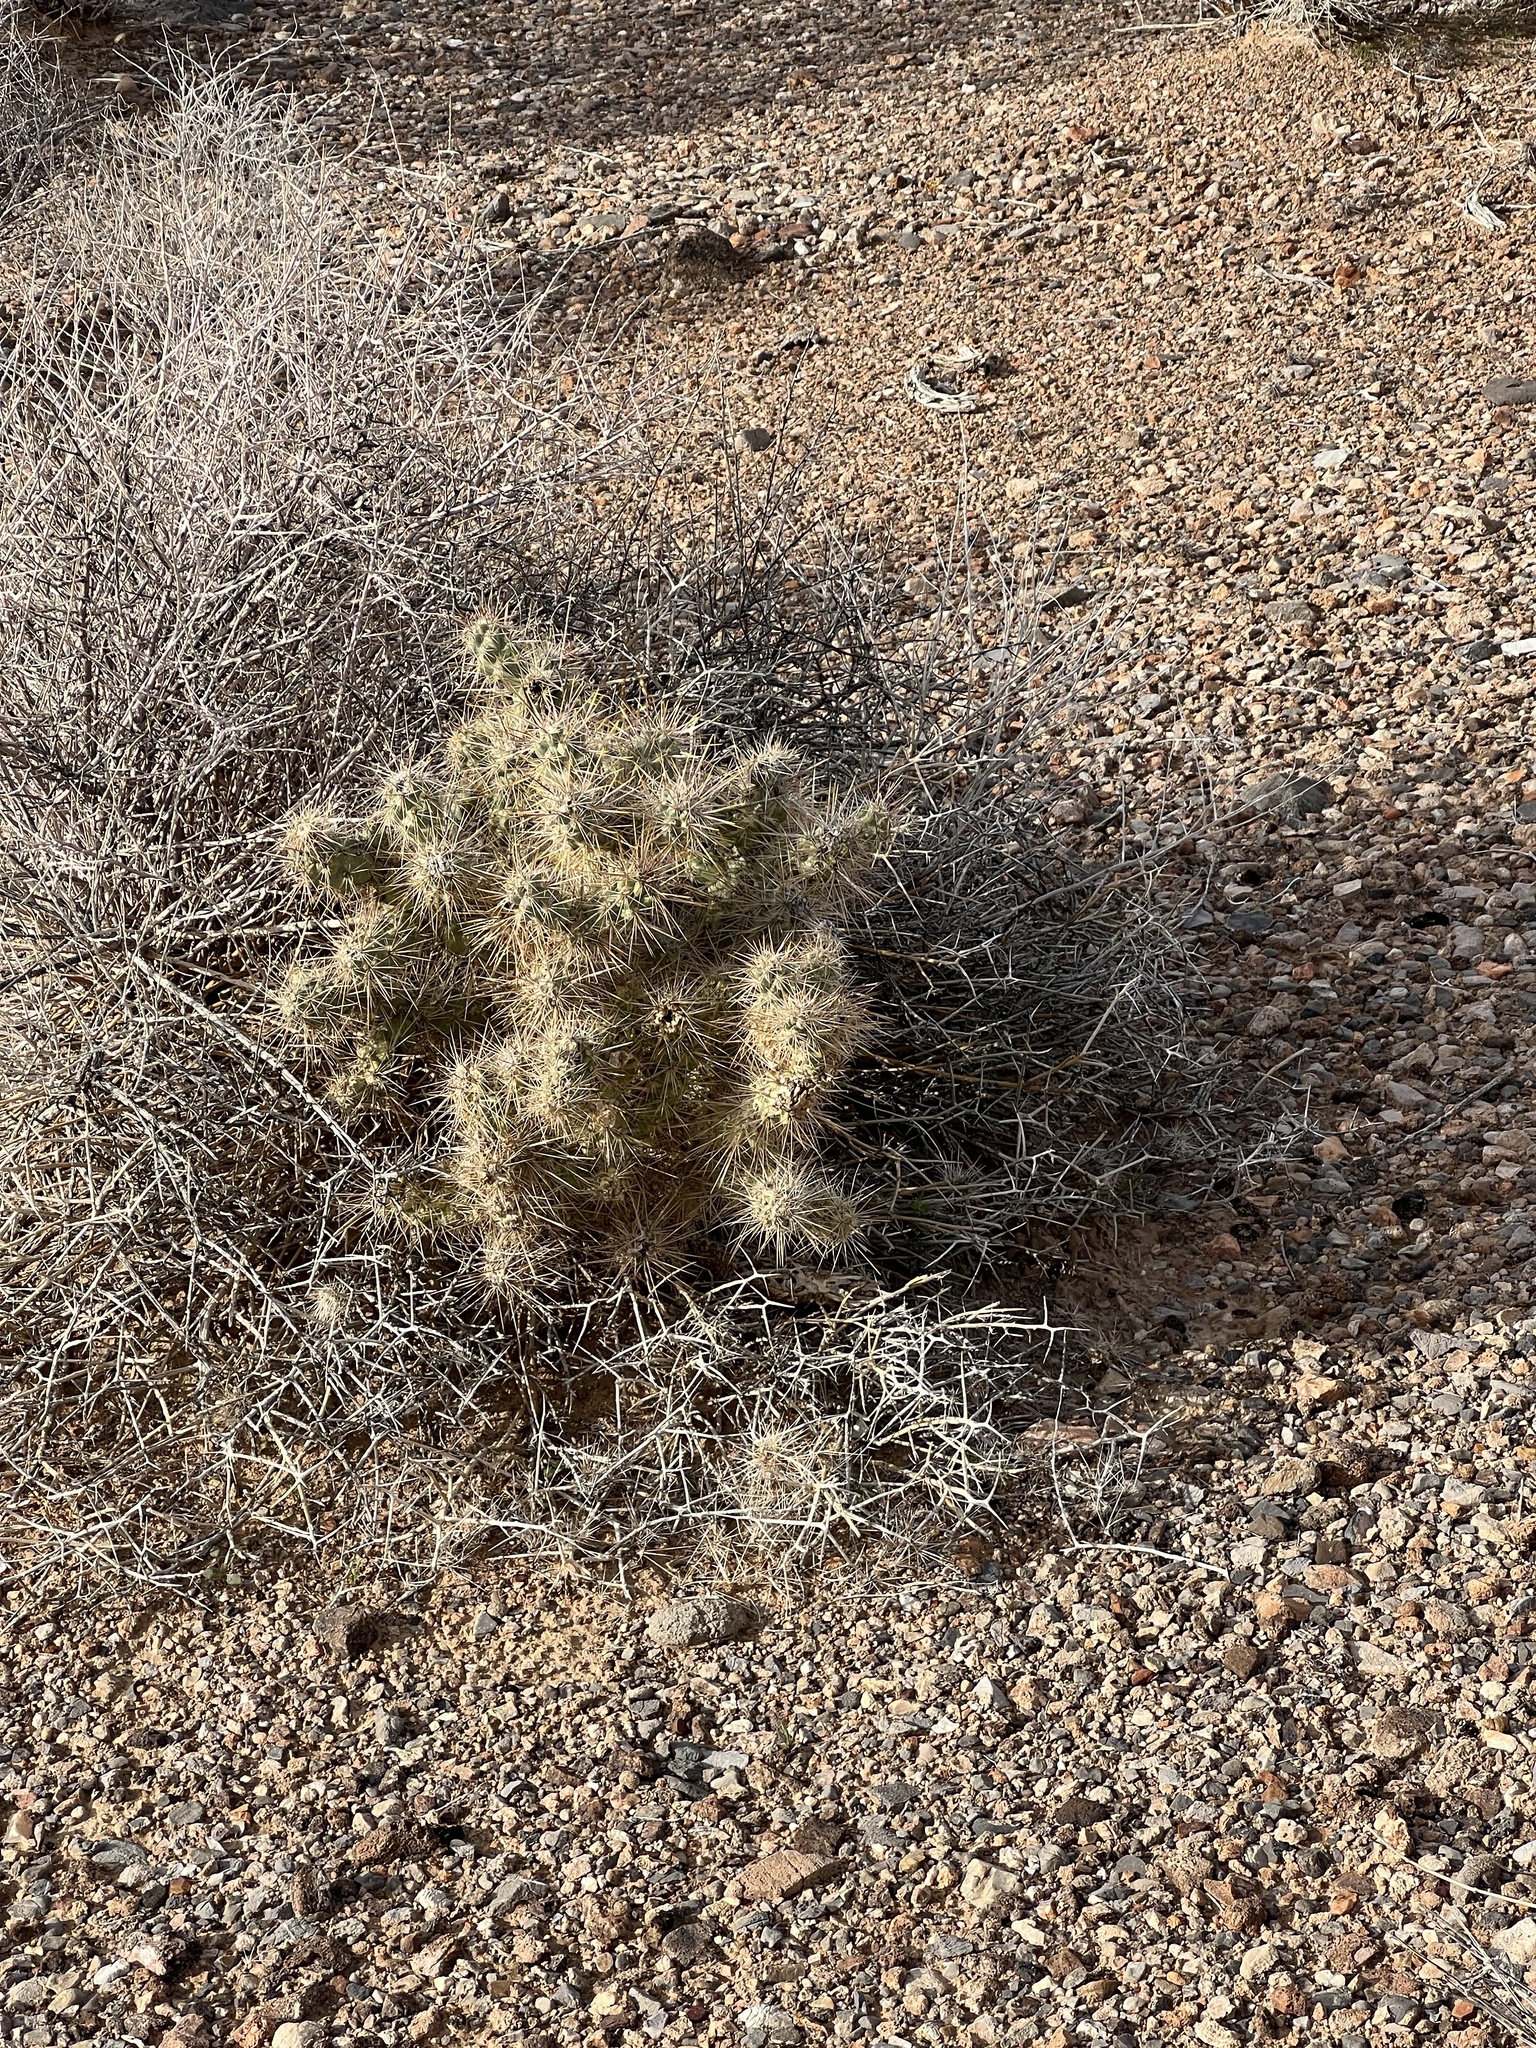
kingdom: Plantae
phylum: Tracheophyta
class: Magnoliopsida
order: Caryophyllales
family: Cactaceae
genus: Cylindropuntia
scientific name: Cylindropuntia echinocarpa
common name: Ground cholla
